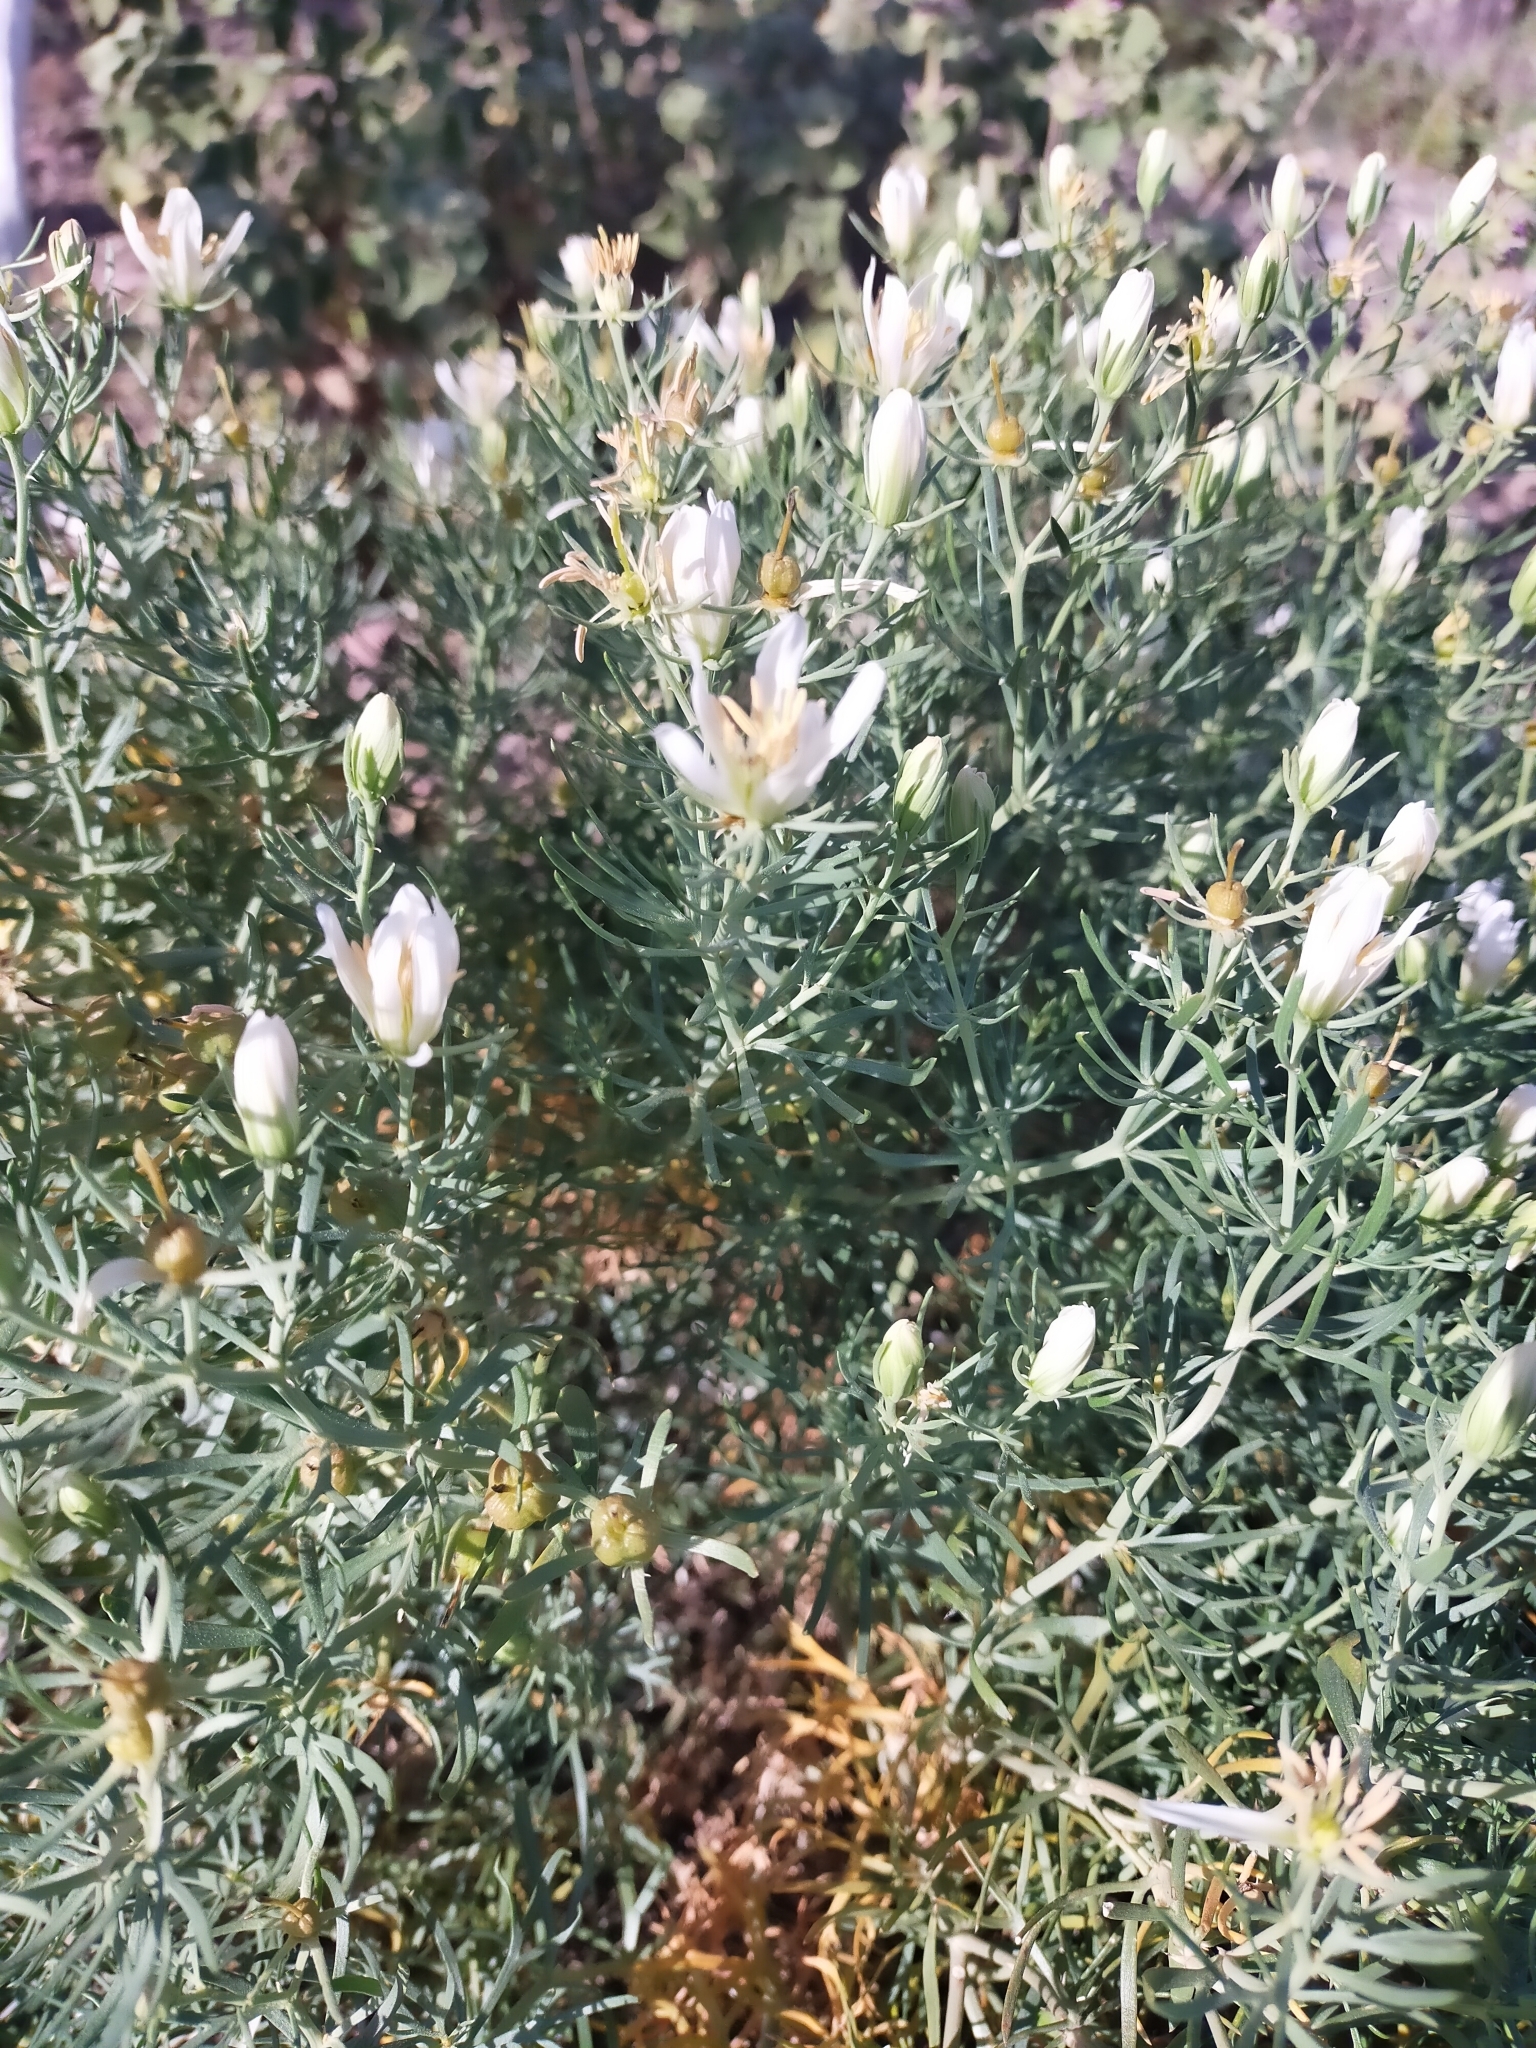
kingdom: Plantae
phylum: Tracheophyta
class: Magnoliopsida
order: Sapindales
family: Tetradiclidaceae
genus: Peganum
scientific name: Peganum harmala
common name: Harmal peganum
